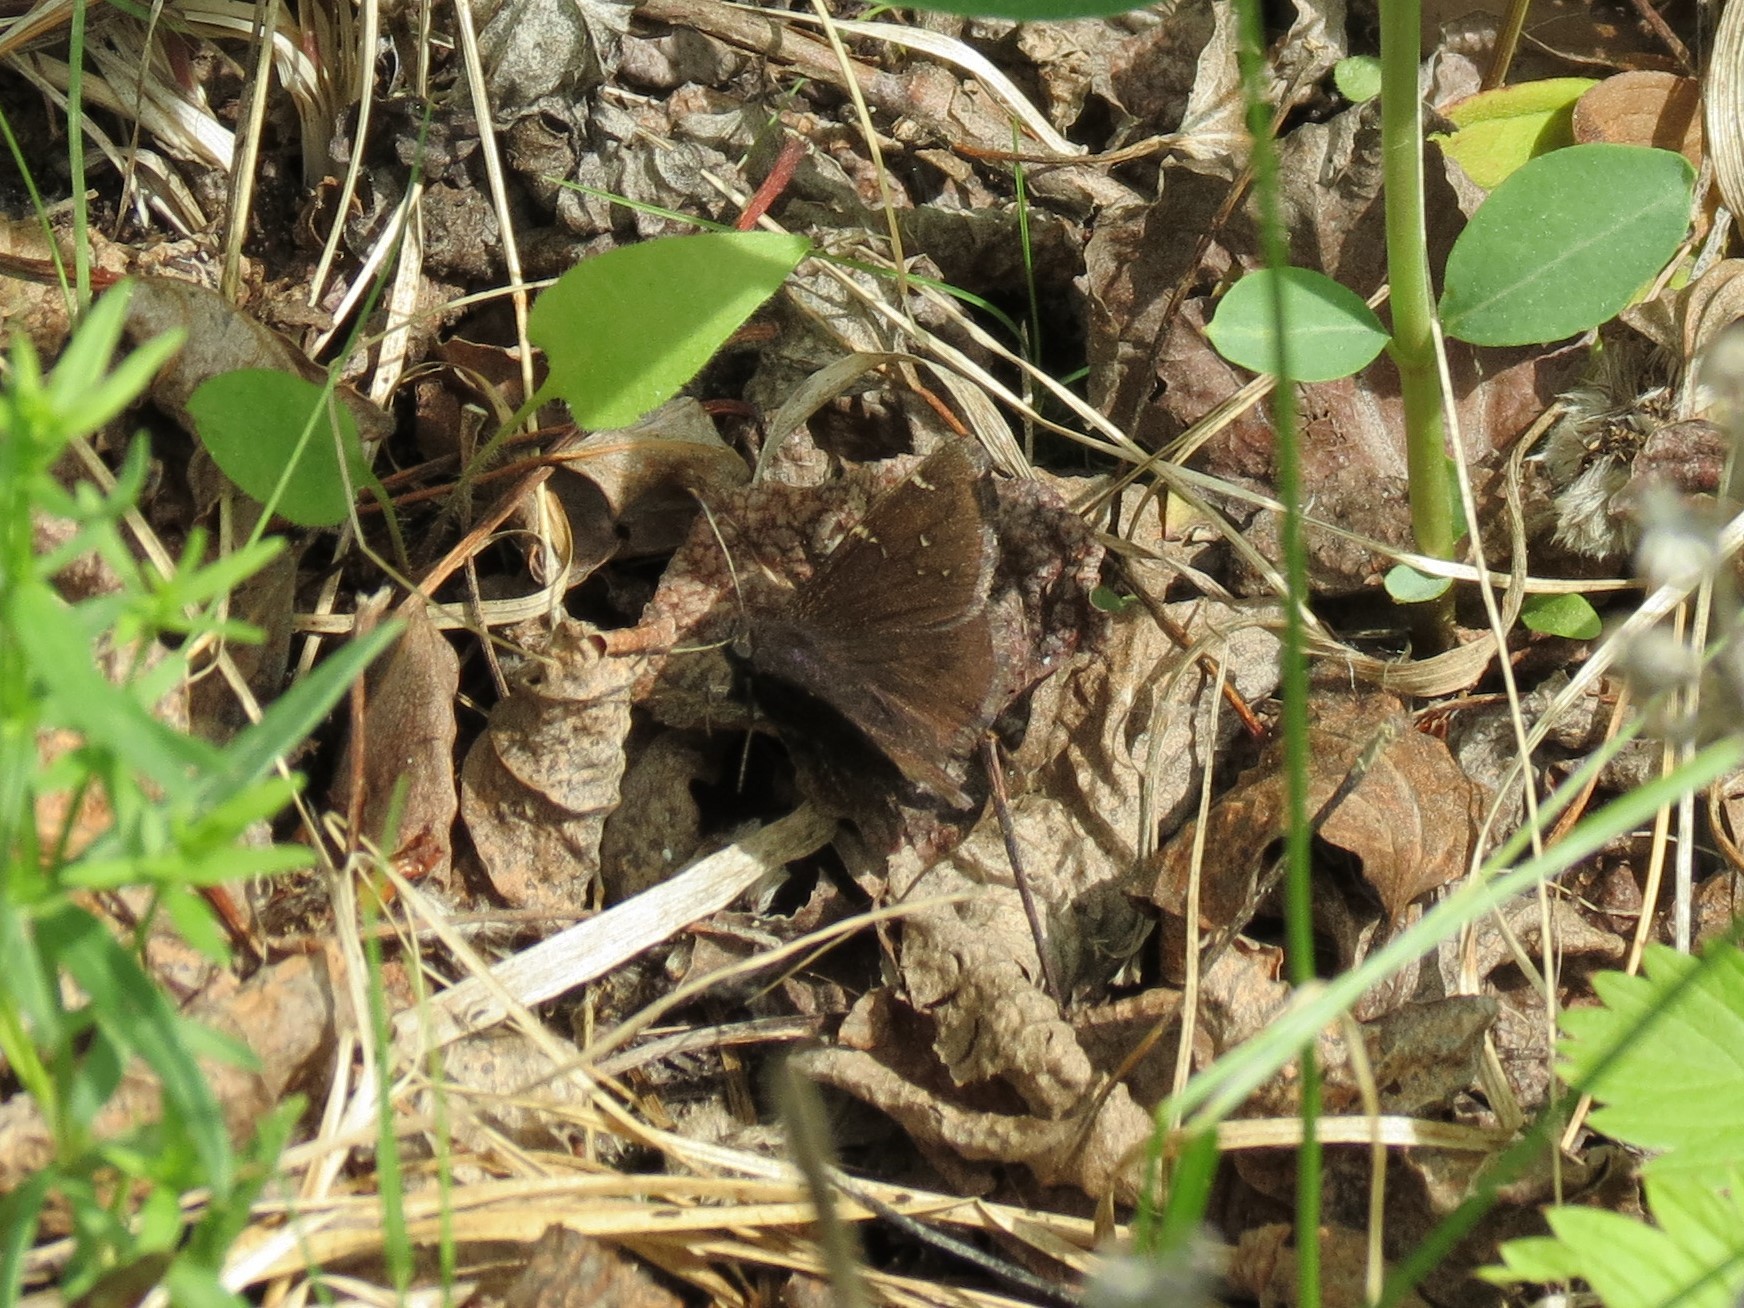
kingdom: Animalia
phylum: Arthropoda
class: Insecta
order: Lepidoptera
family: Hesperiidae
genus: Thorybes
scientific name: Thorybes pylades
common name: Northern cloudywing
